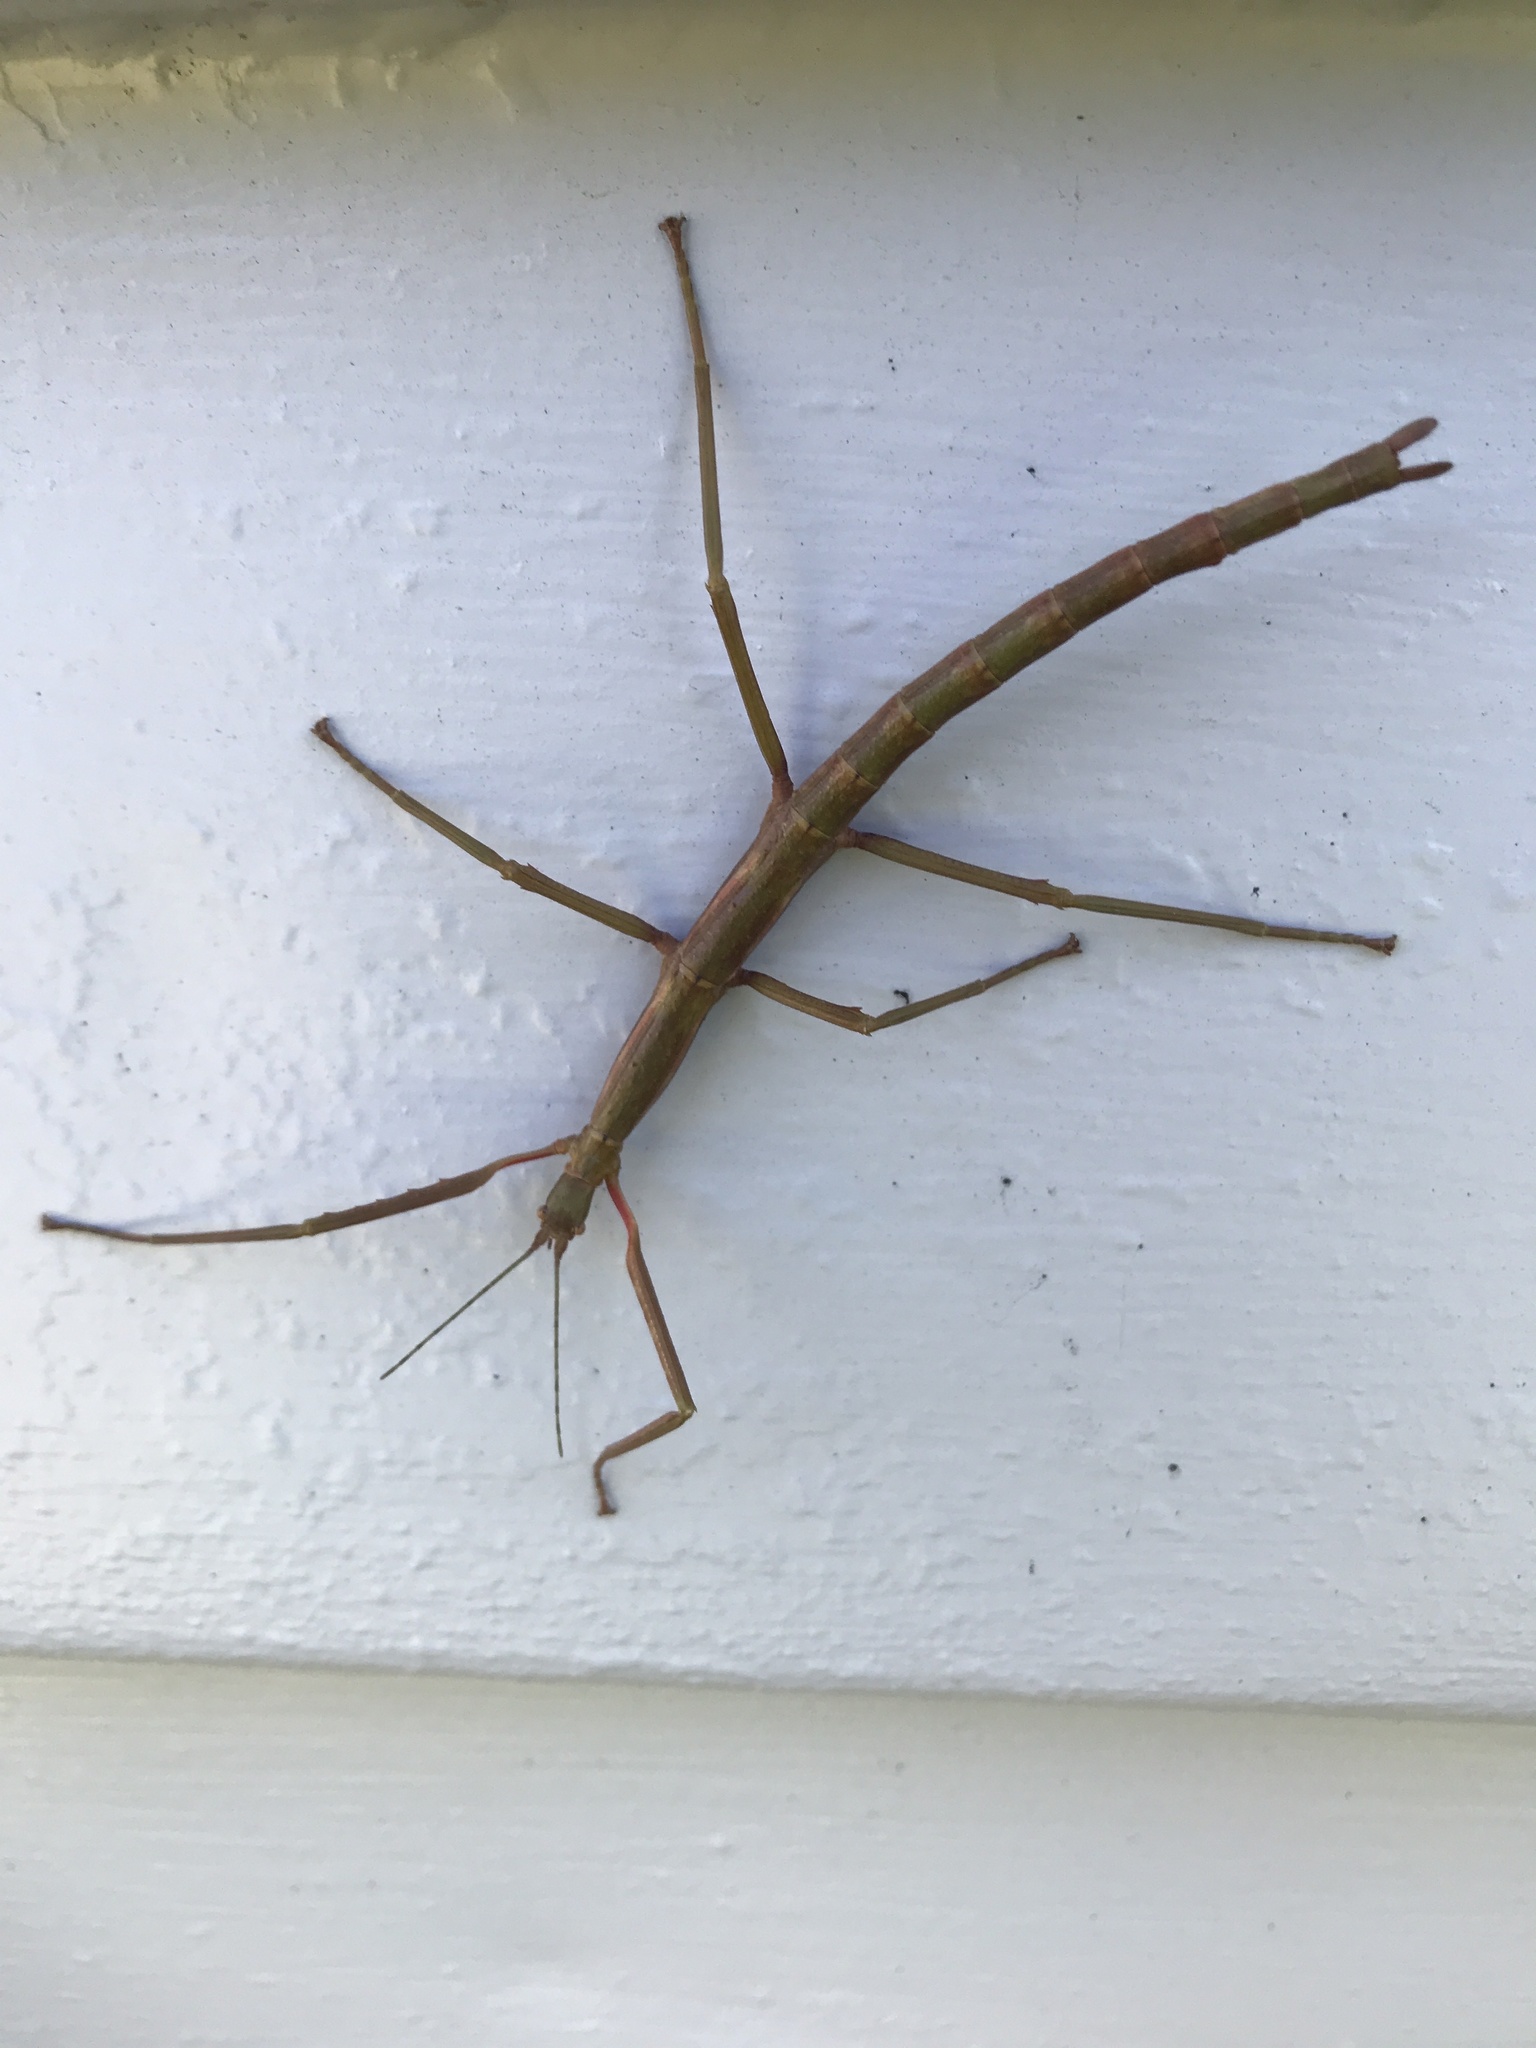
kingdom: Animalia
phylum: Arthropoda
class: Insecta
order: Phasmida
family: Phasmatidae
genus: Acanthoxyla
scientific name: Acanthoxyla inermis
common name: Unarmed stick insect
